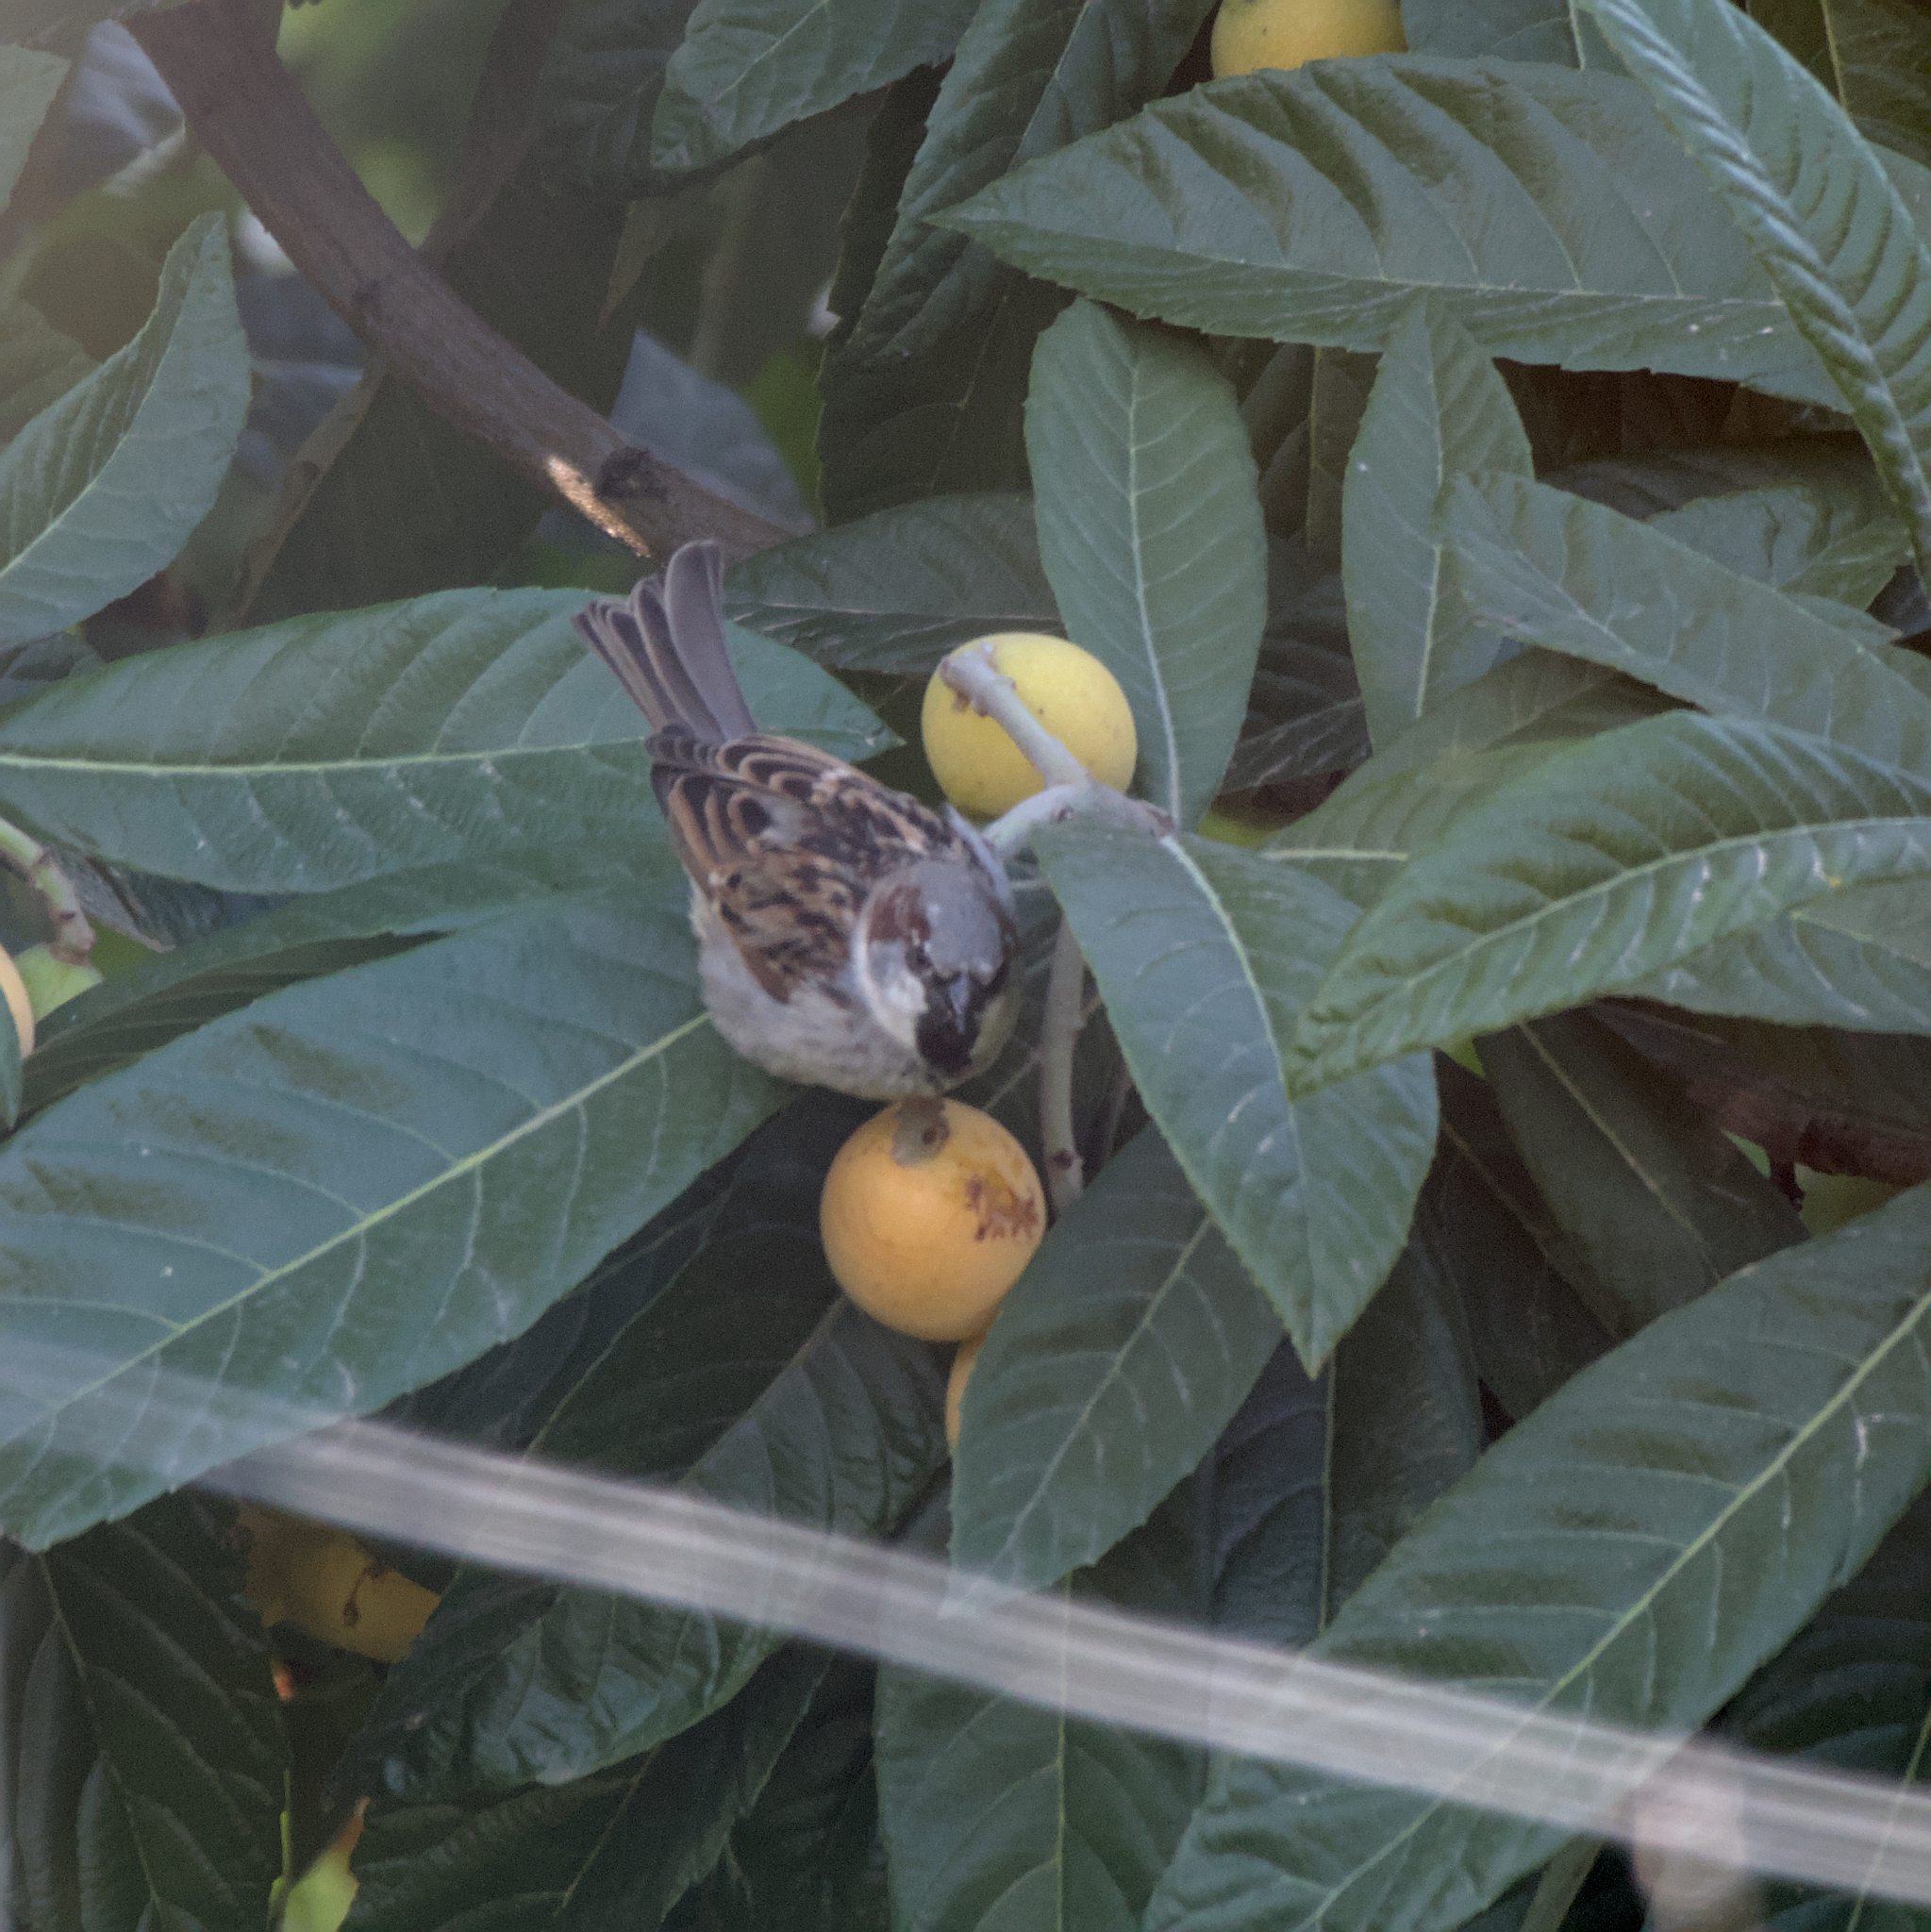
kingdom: Animalia
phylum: Chordata
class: Aves
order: Passeriformes
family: Passeridae
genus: Passer
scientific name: Passer domesticus
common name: House sparrow
